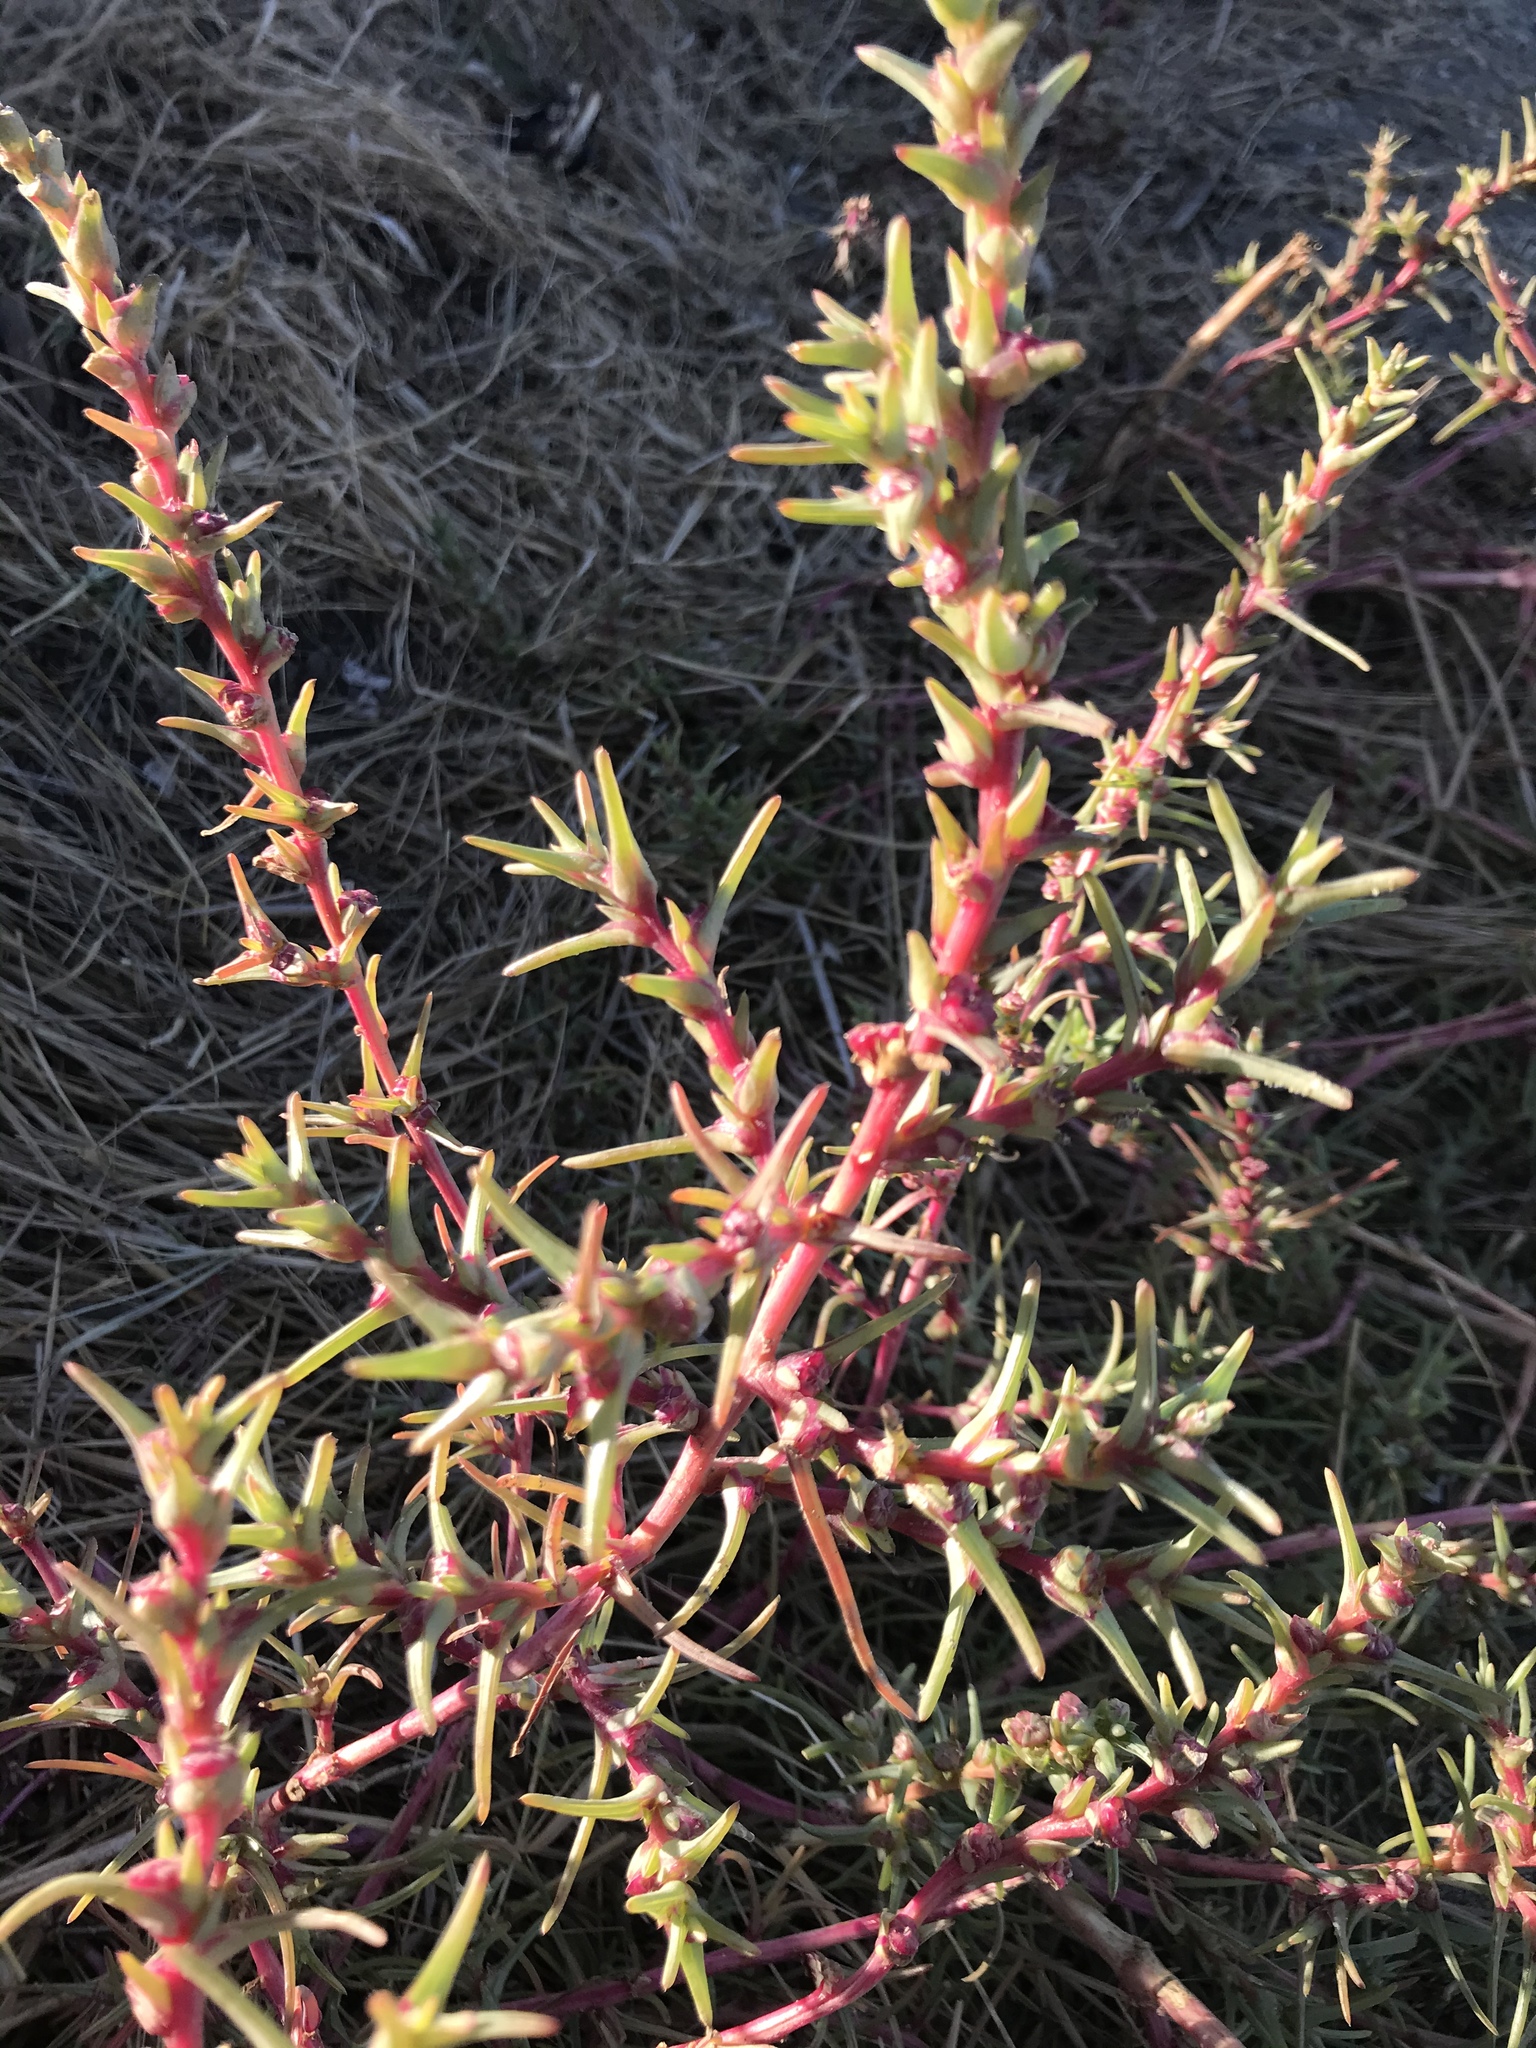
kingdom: Plantae
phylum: Tracheophyta
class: Magnoliopsida
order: Caryophyllales
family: Amaranthaceae
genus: Salsola
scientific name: Salsola soda
